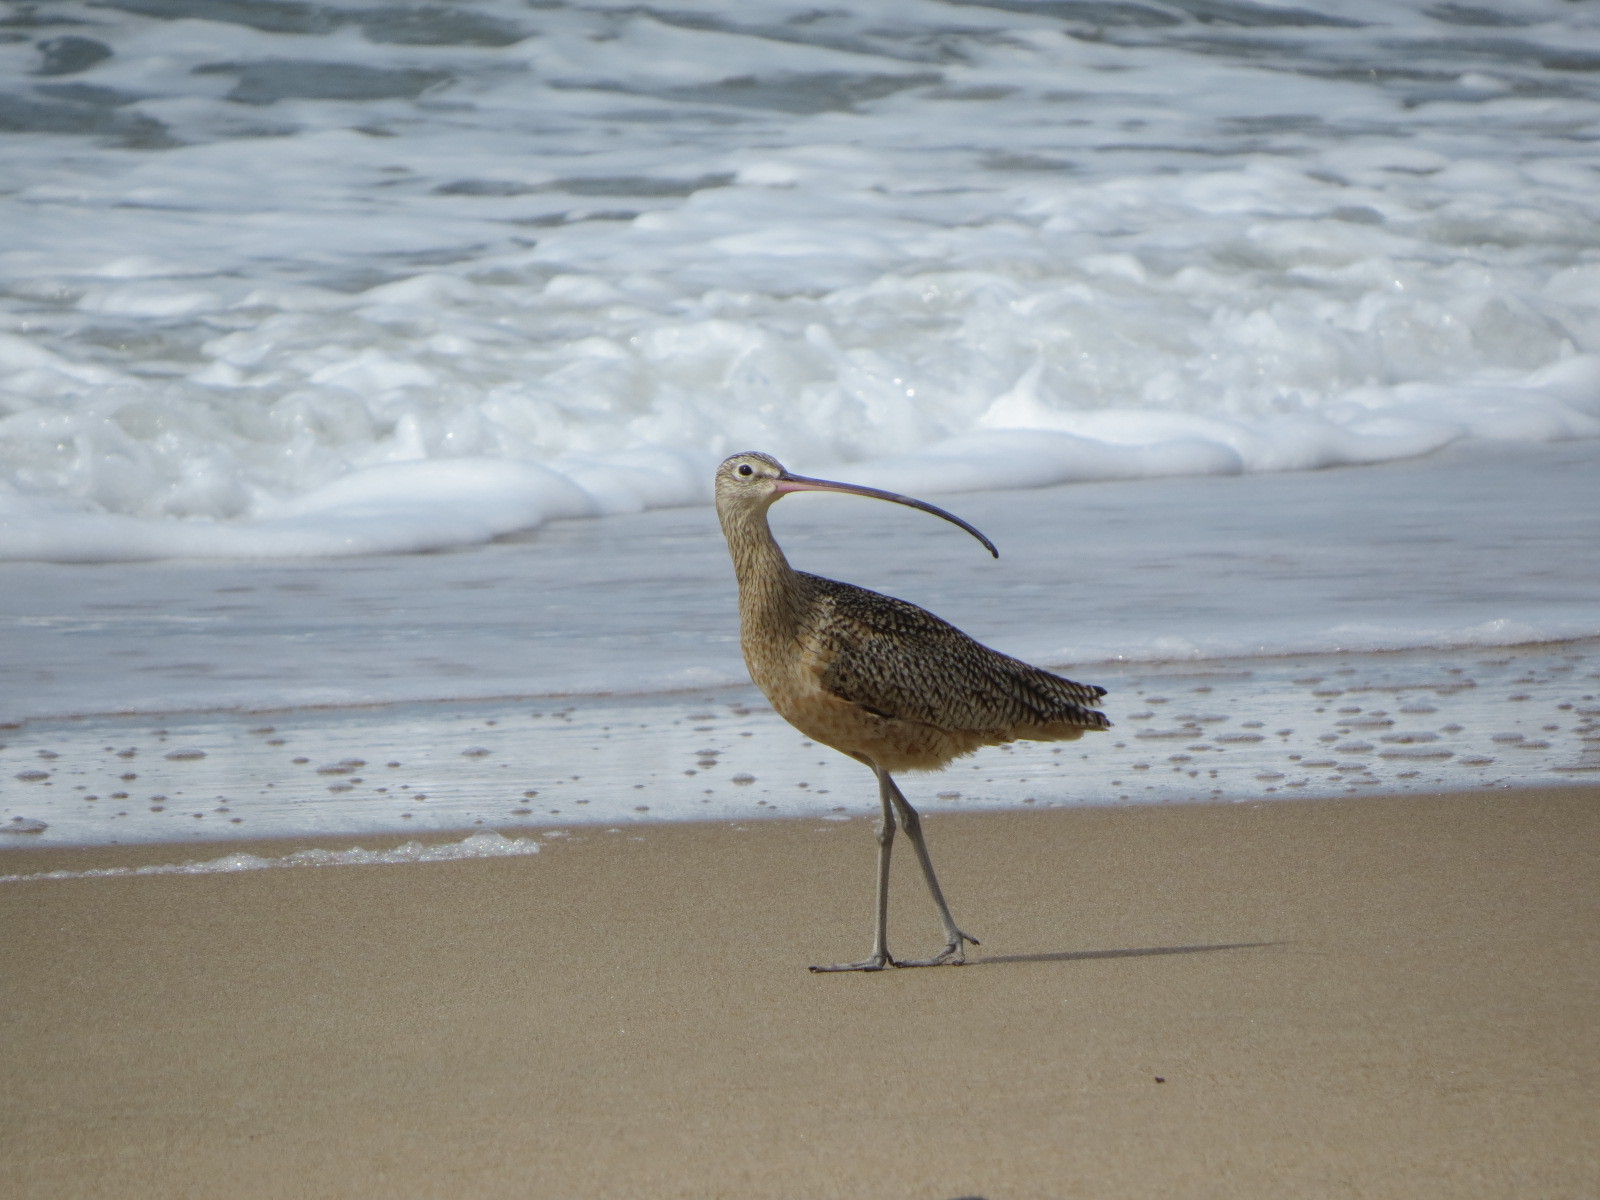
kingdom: Animalia
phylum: Chordata
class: Aves
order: Charadriiformes
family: Scolopacidae
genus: Numenius
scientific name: Numenius americanus
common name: Long-billed curlew
